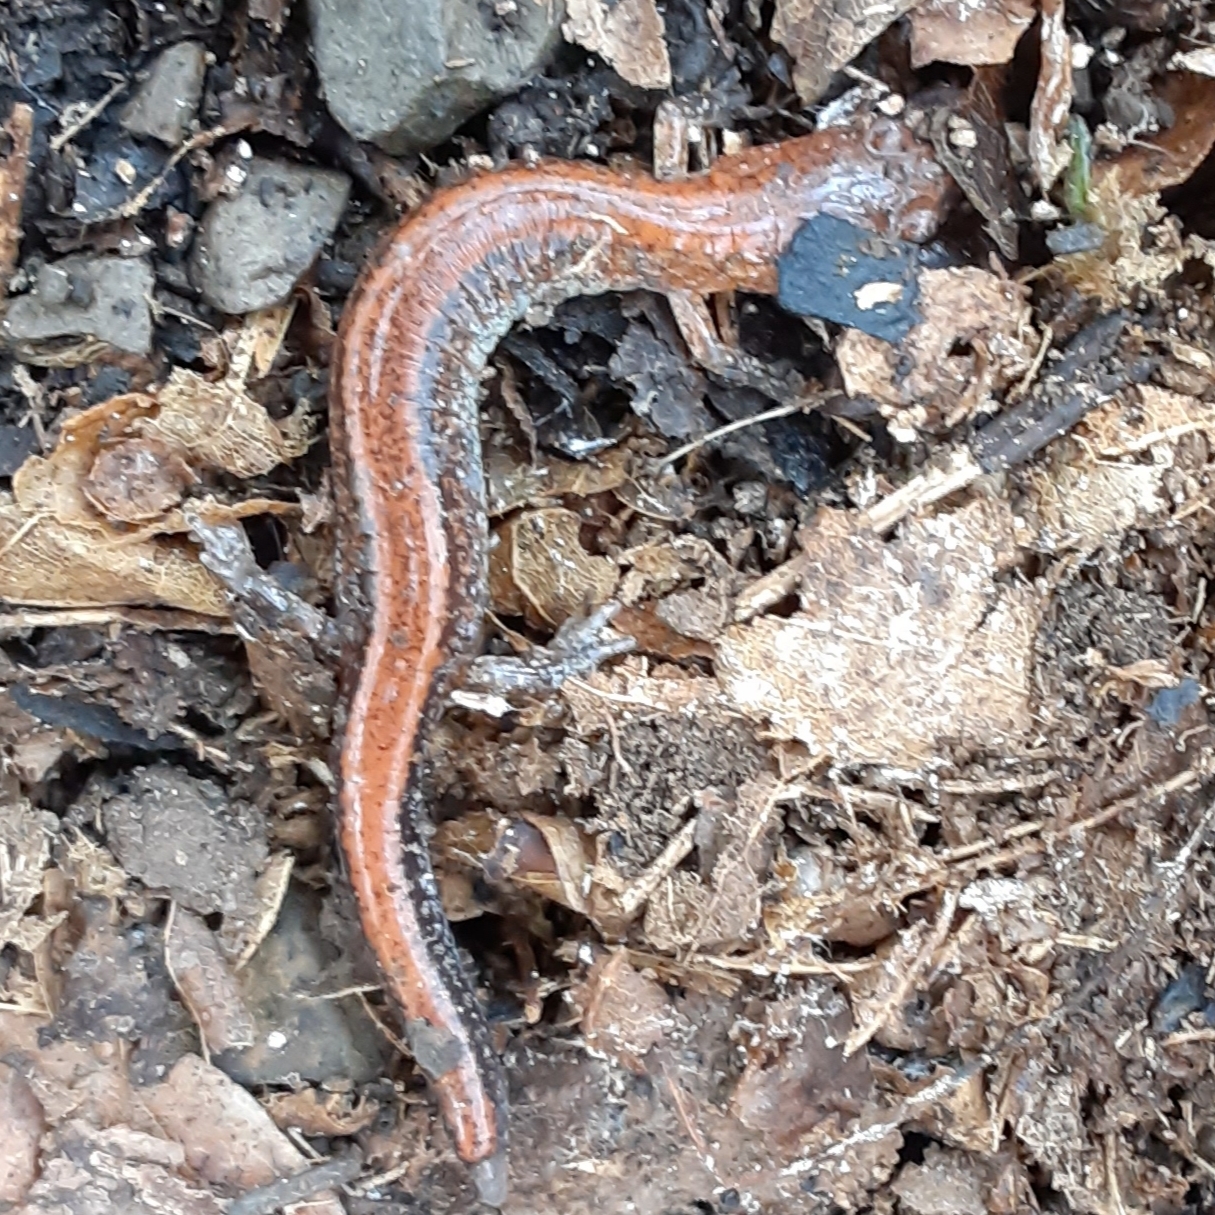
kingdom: Animalia
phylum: Chordata
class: Amphibia
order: Caudata
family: Plethodontidae
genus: Plethodon
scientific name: Plethodon cinereus
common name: Redback salamander
